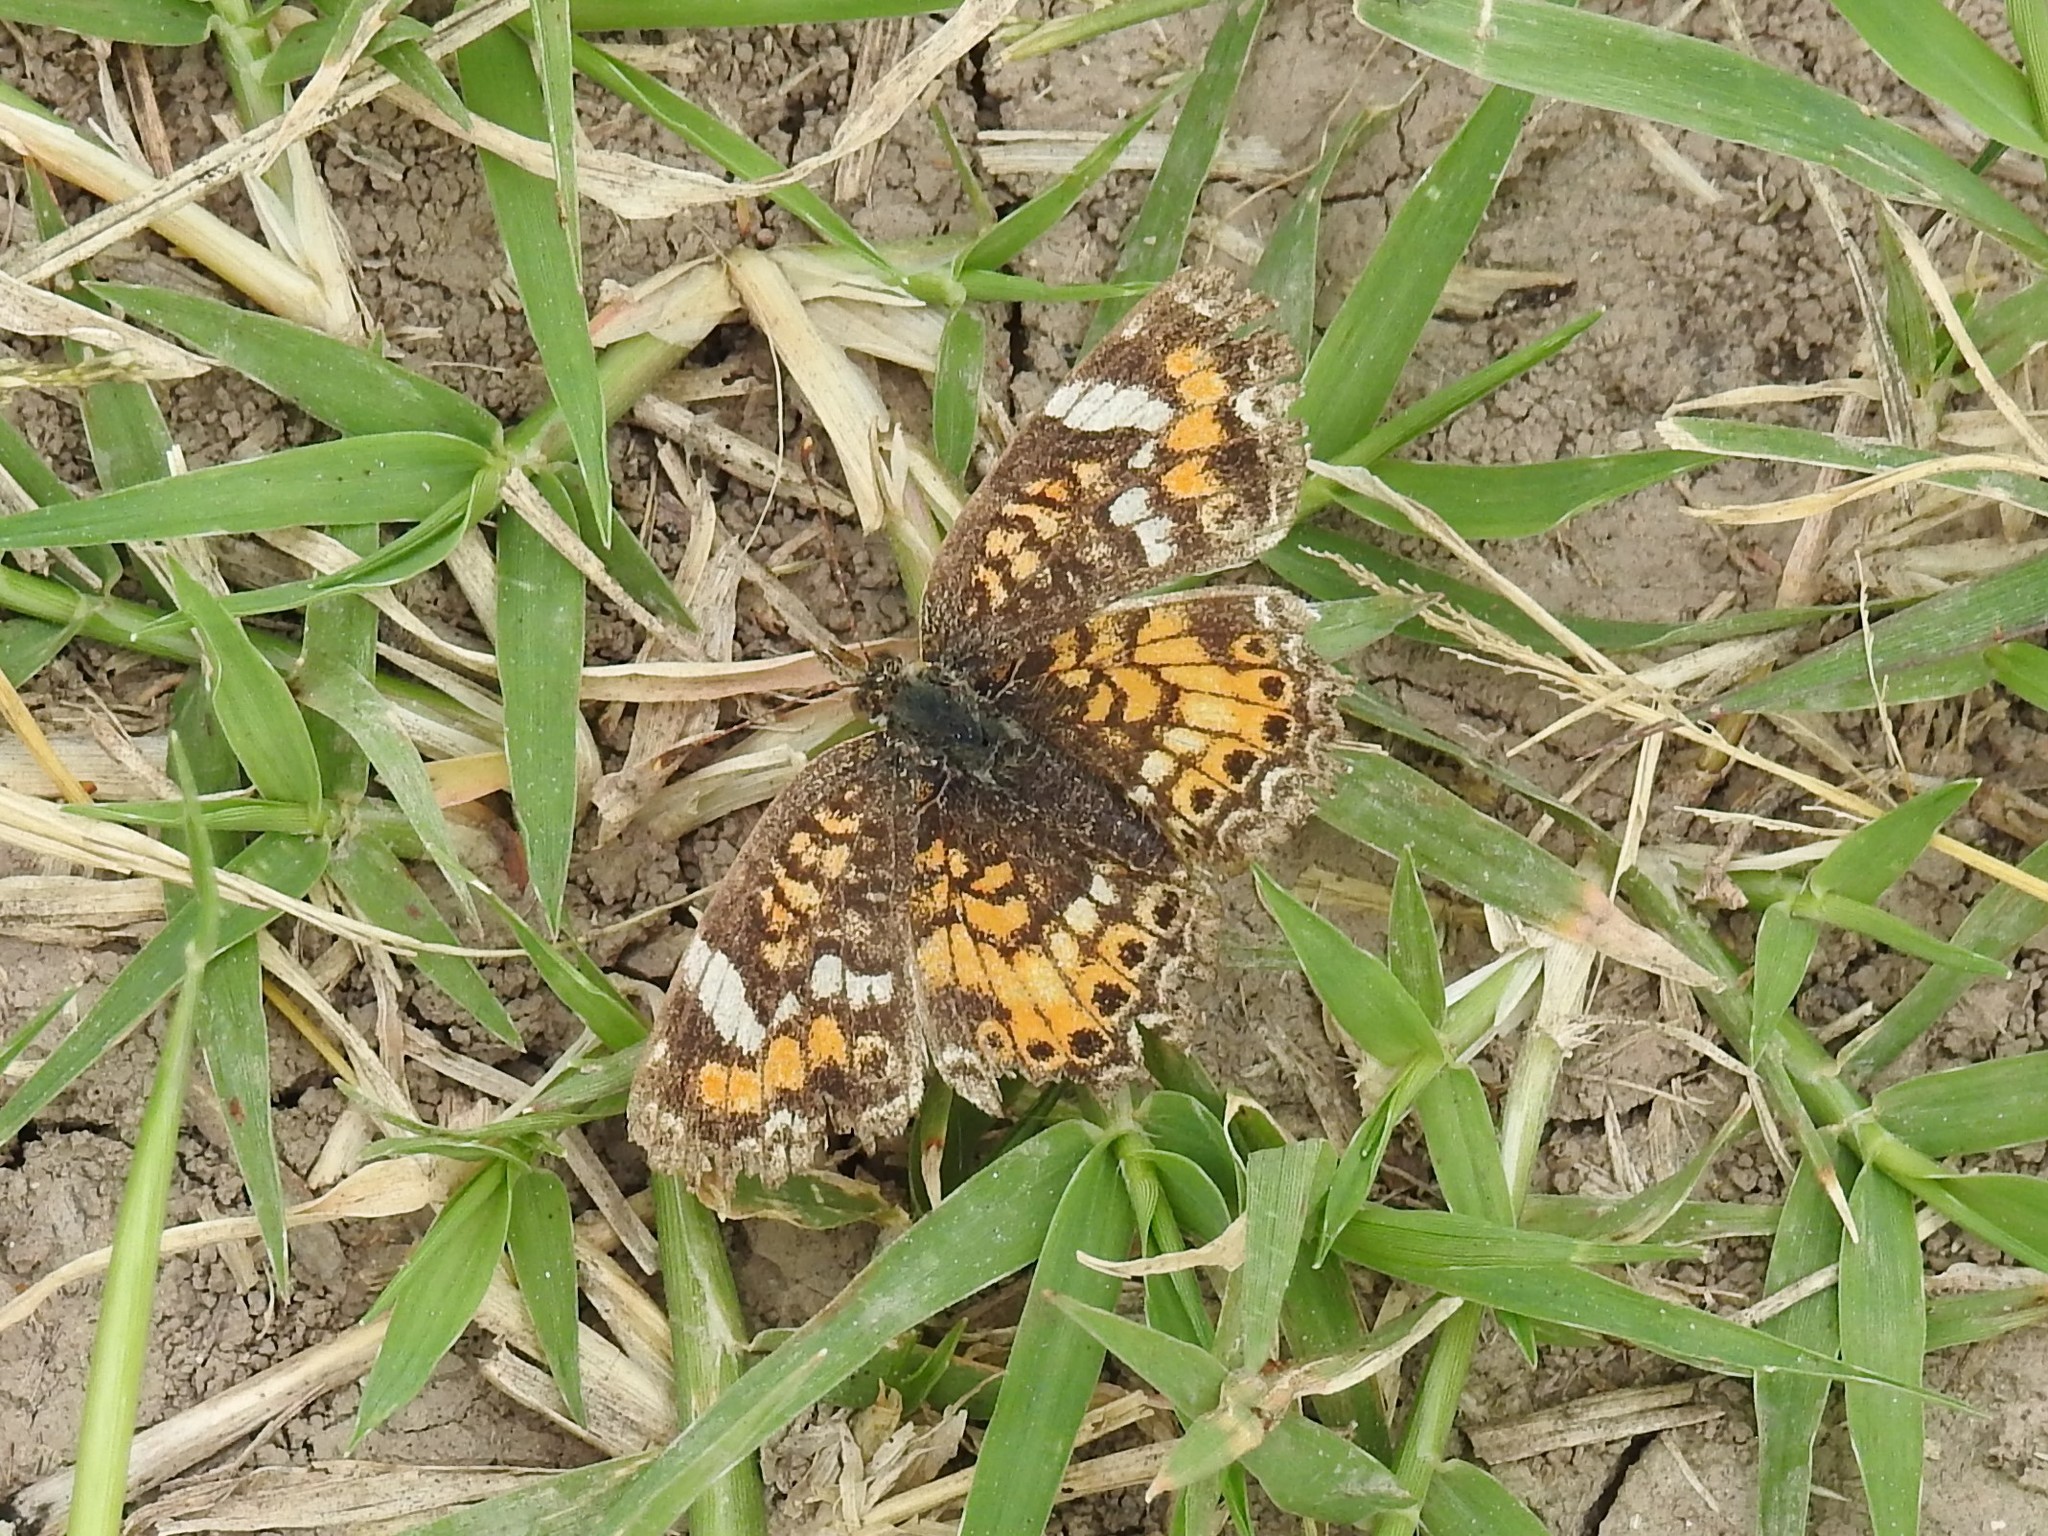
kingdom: Animalia
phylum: Arthropoda
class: Insecta
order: Lepidoptera
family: Nymphalidae
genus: Phyciodes
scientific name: Phyciodes phaon
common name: Phaon crescent
